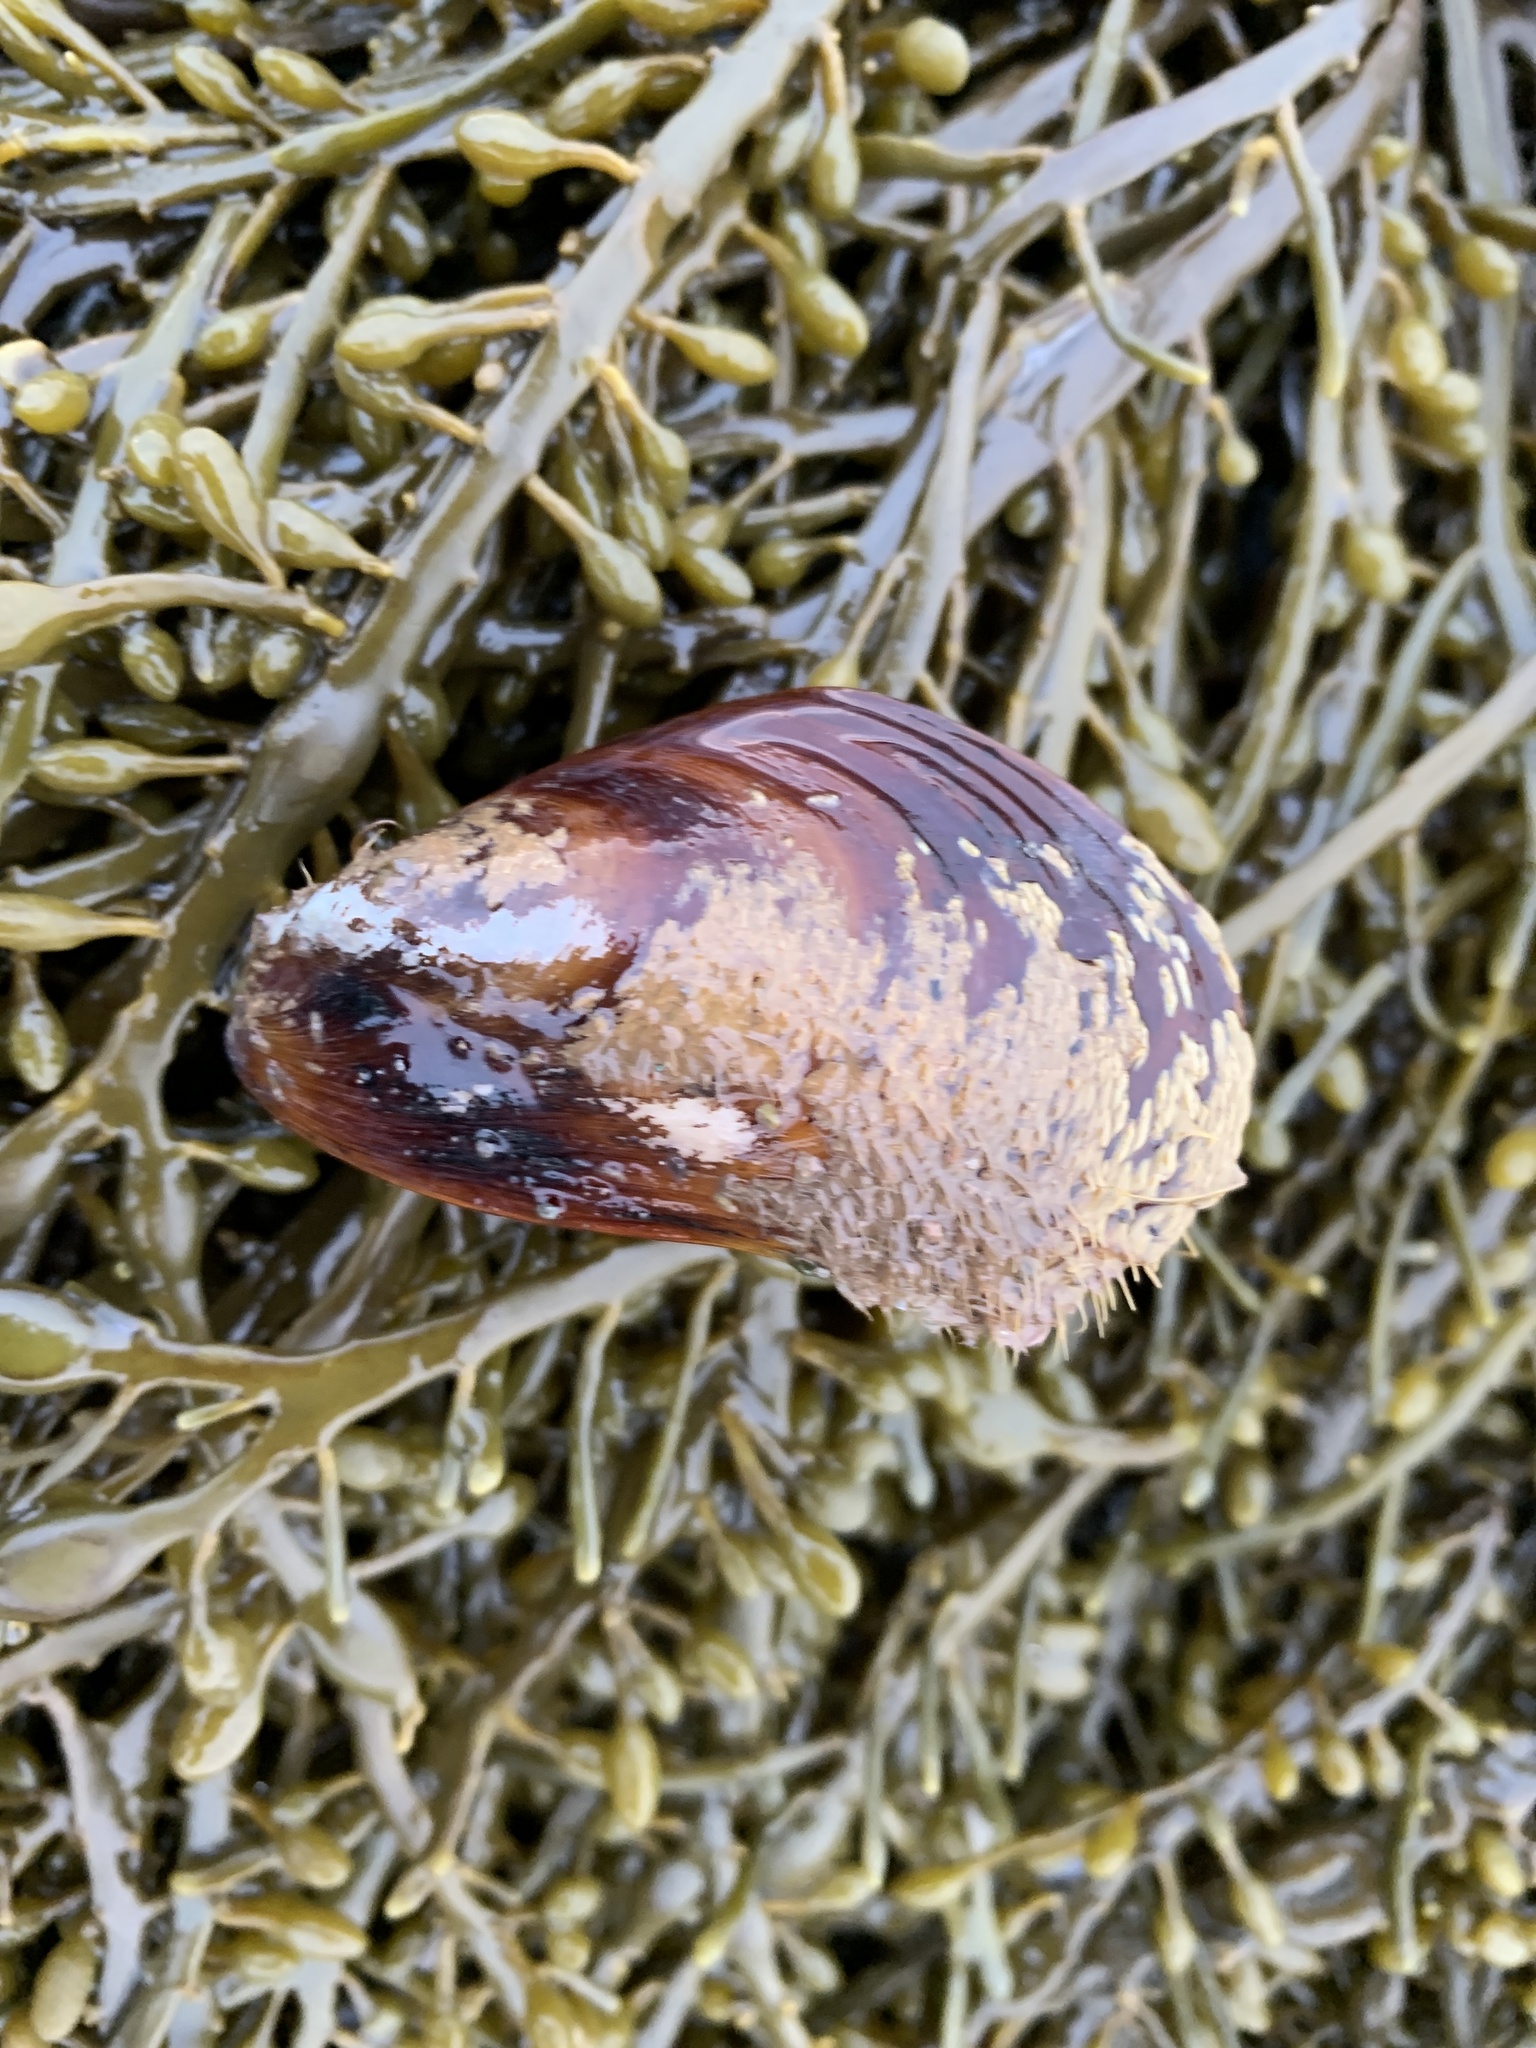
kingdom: Animalia
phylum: Mollusca
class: Bivalvia
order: Mytilida
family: Mytilidae
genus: Modiolus
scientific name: Modiolus modiolus
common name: Horse-mussel
